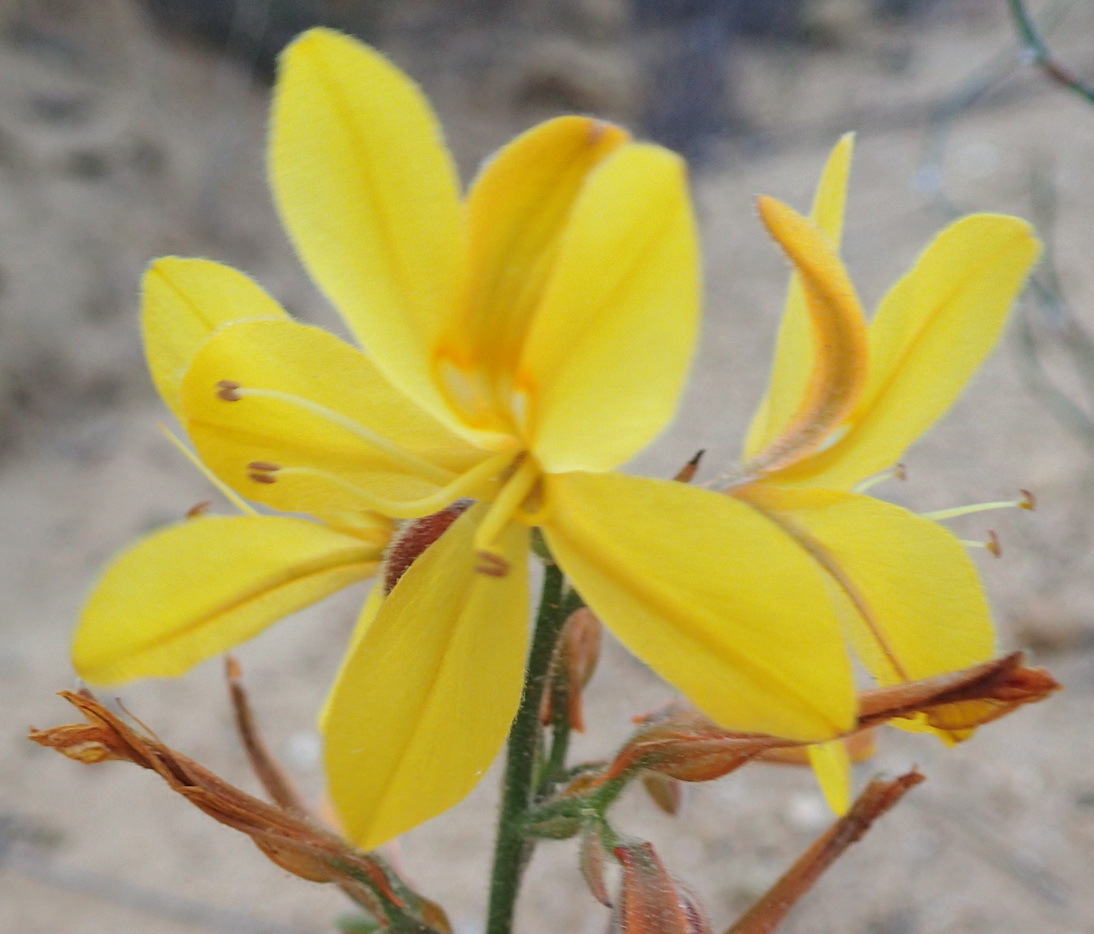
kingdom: Plantae
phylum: Tracheophyta
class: Liliopsida
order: Commelinales
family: Haemodoraceae
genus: Wachendorfia
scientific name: Wachendorfia paniculata
